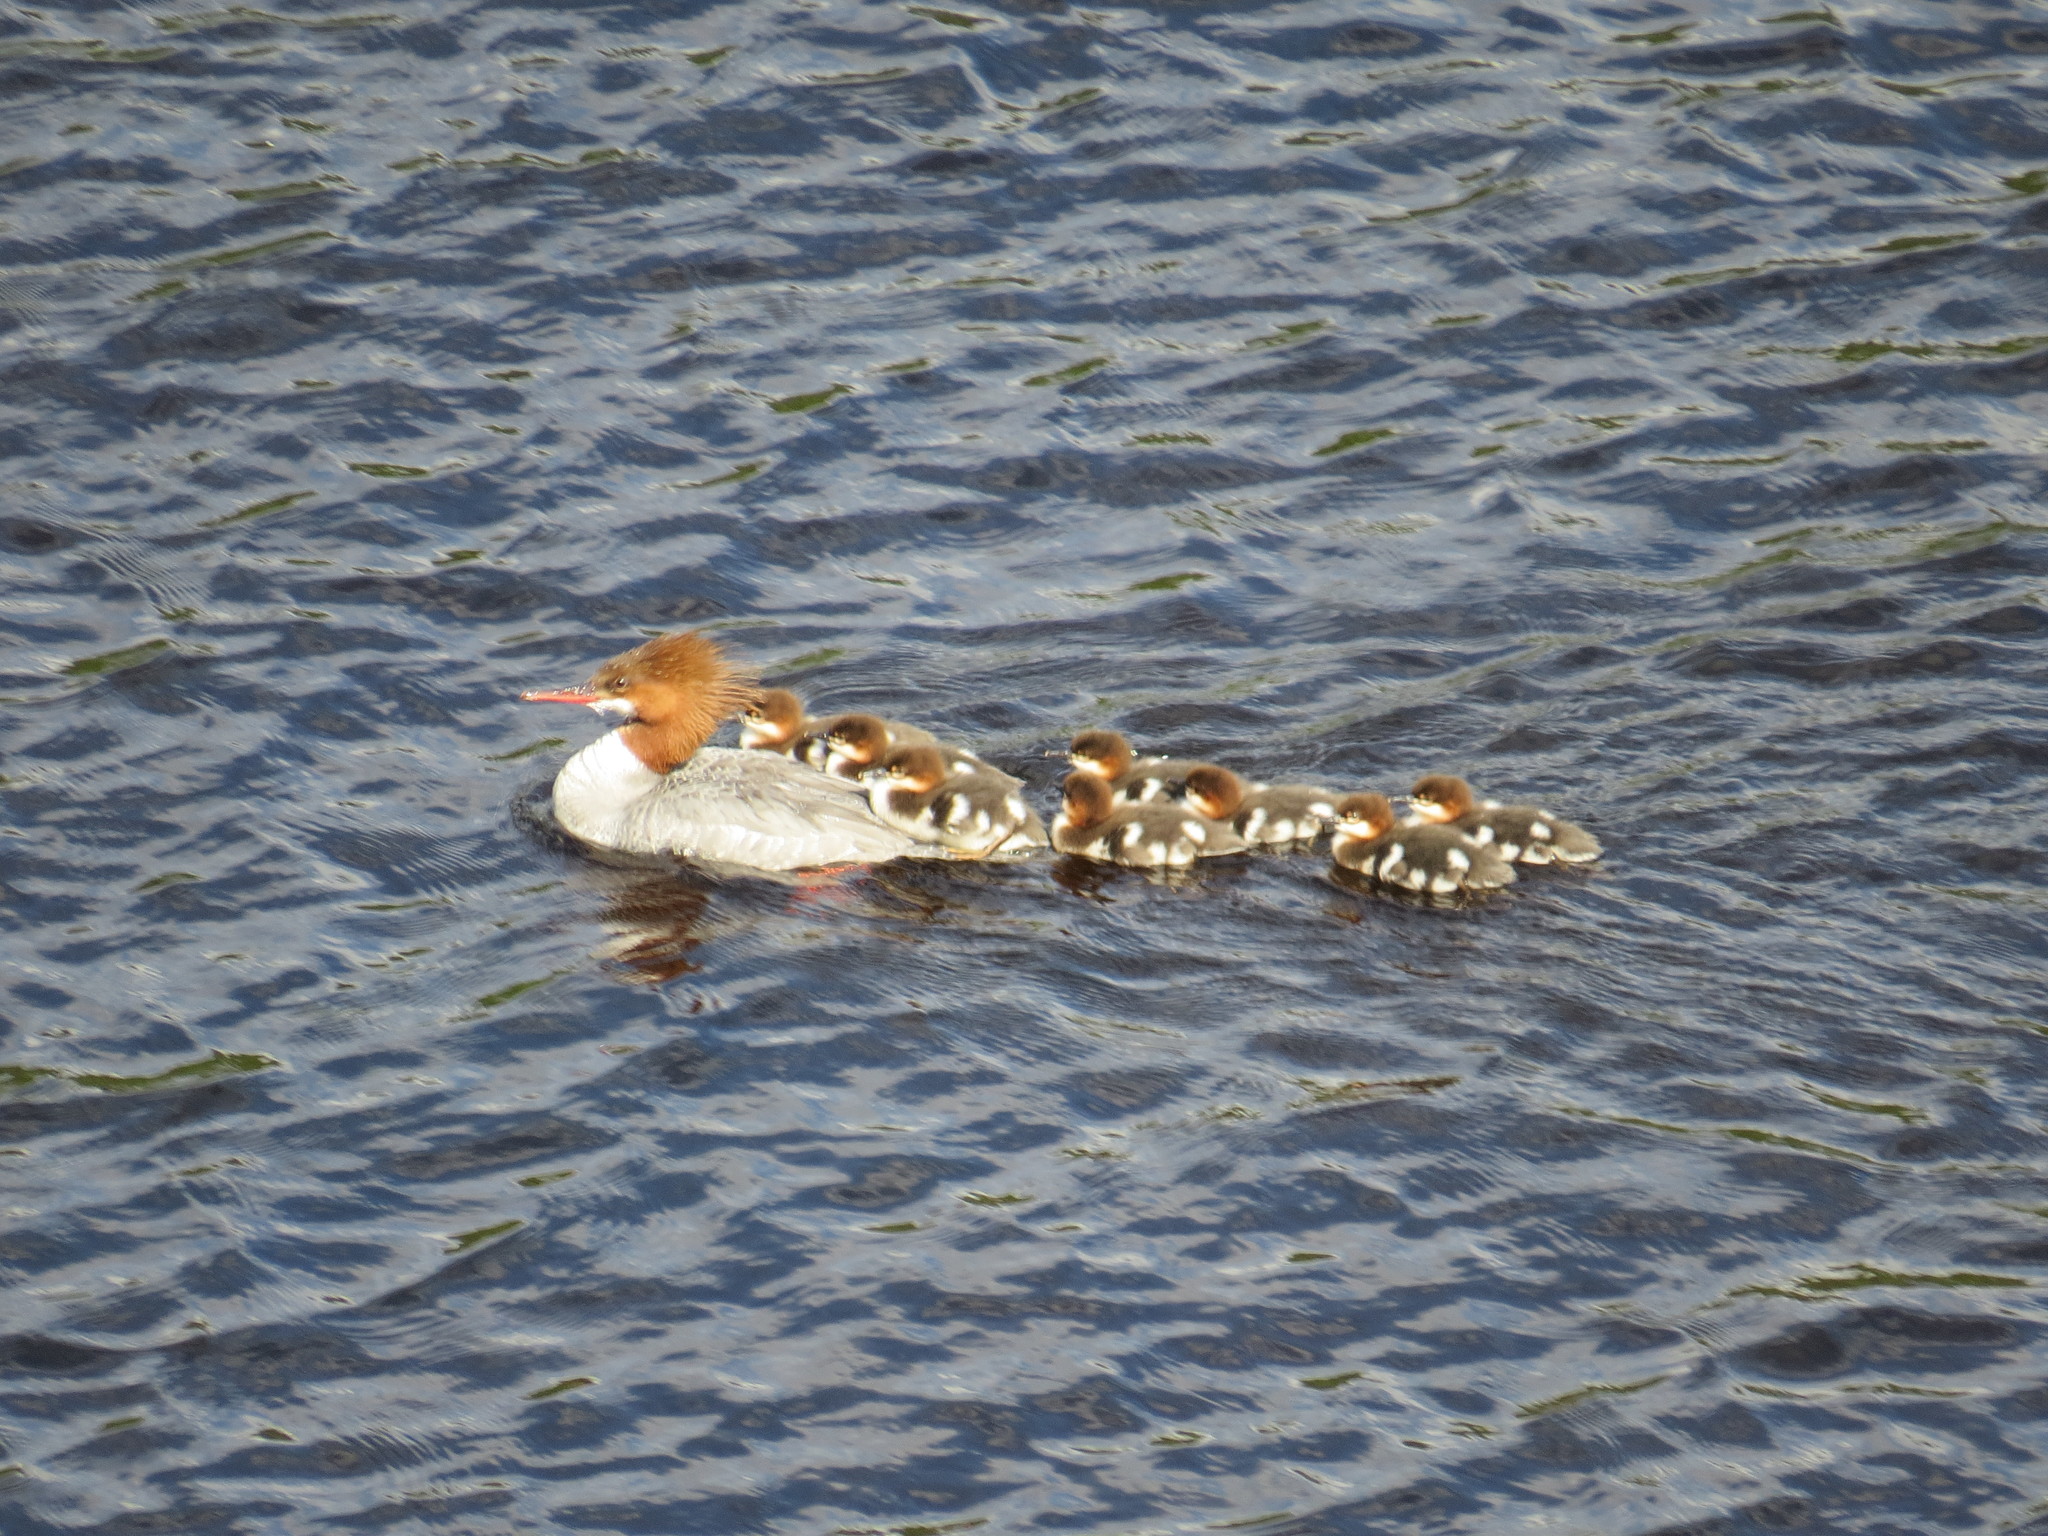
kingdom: Animalia
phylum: Chordata
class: Aves
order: Anseriformes
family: Anatidae
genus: Mergus
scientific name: Mergus merganser
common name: Common merganser
